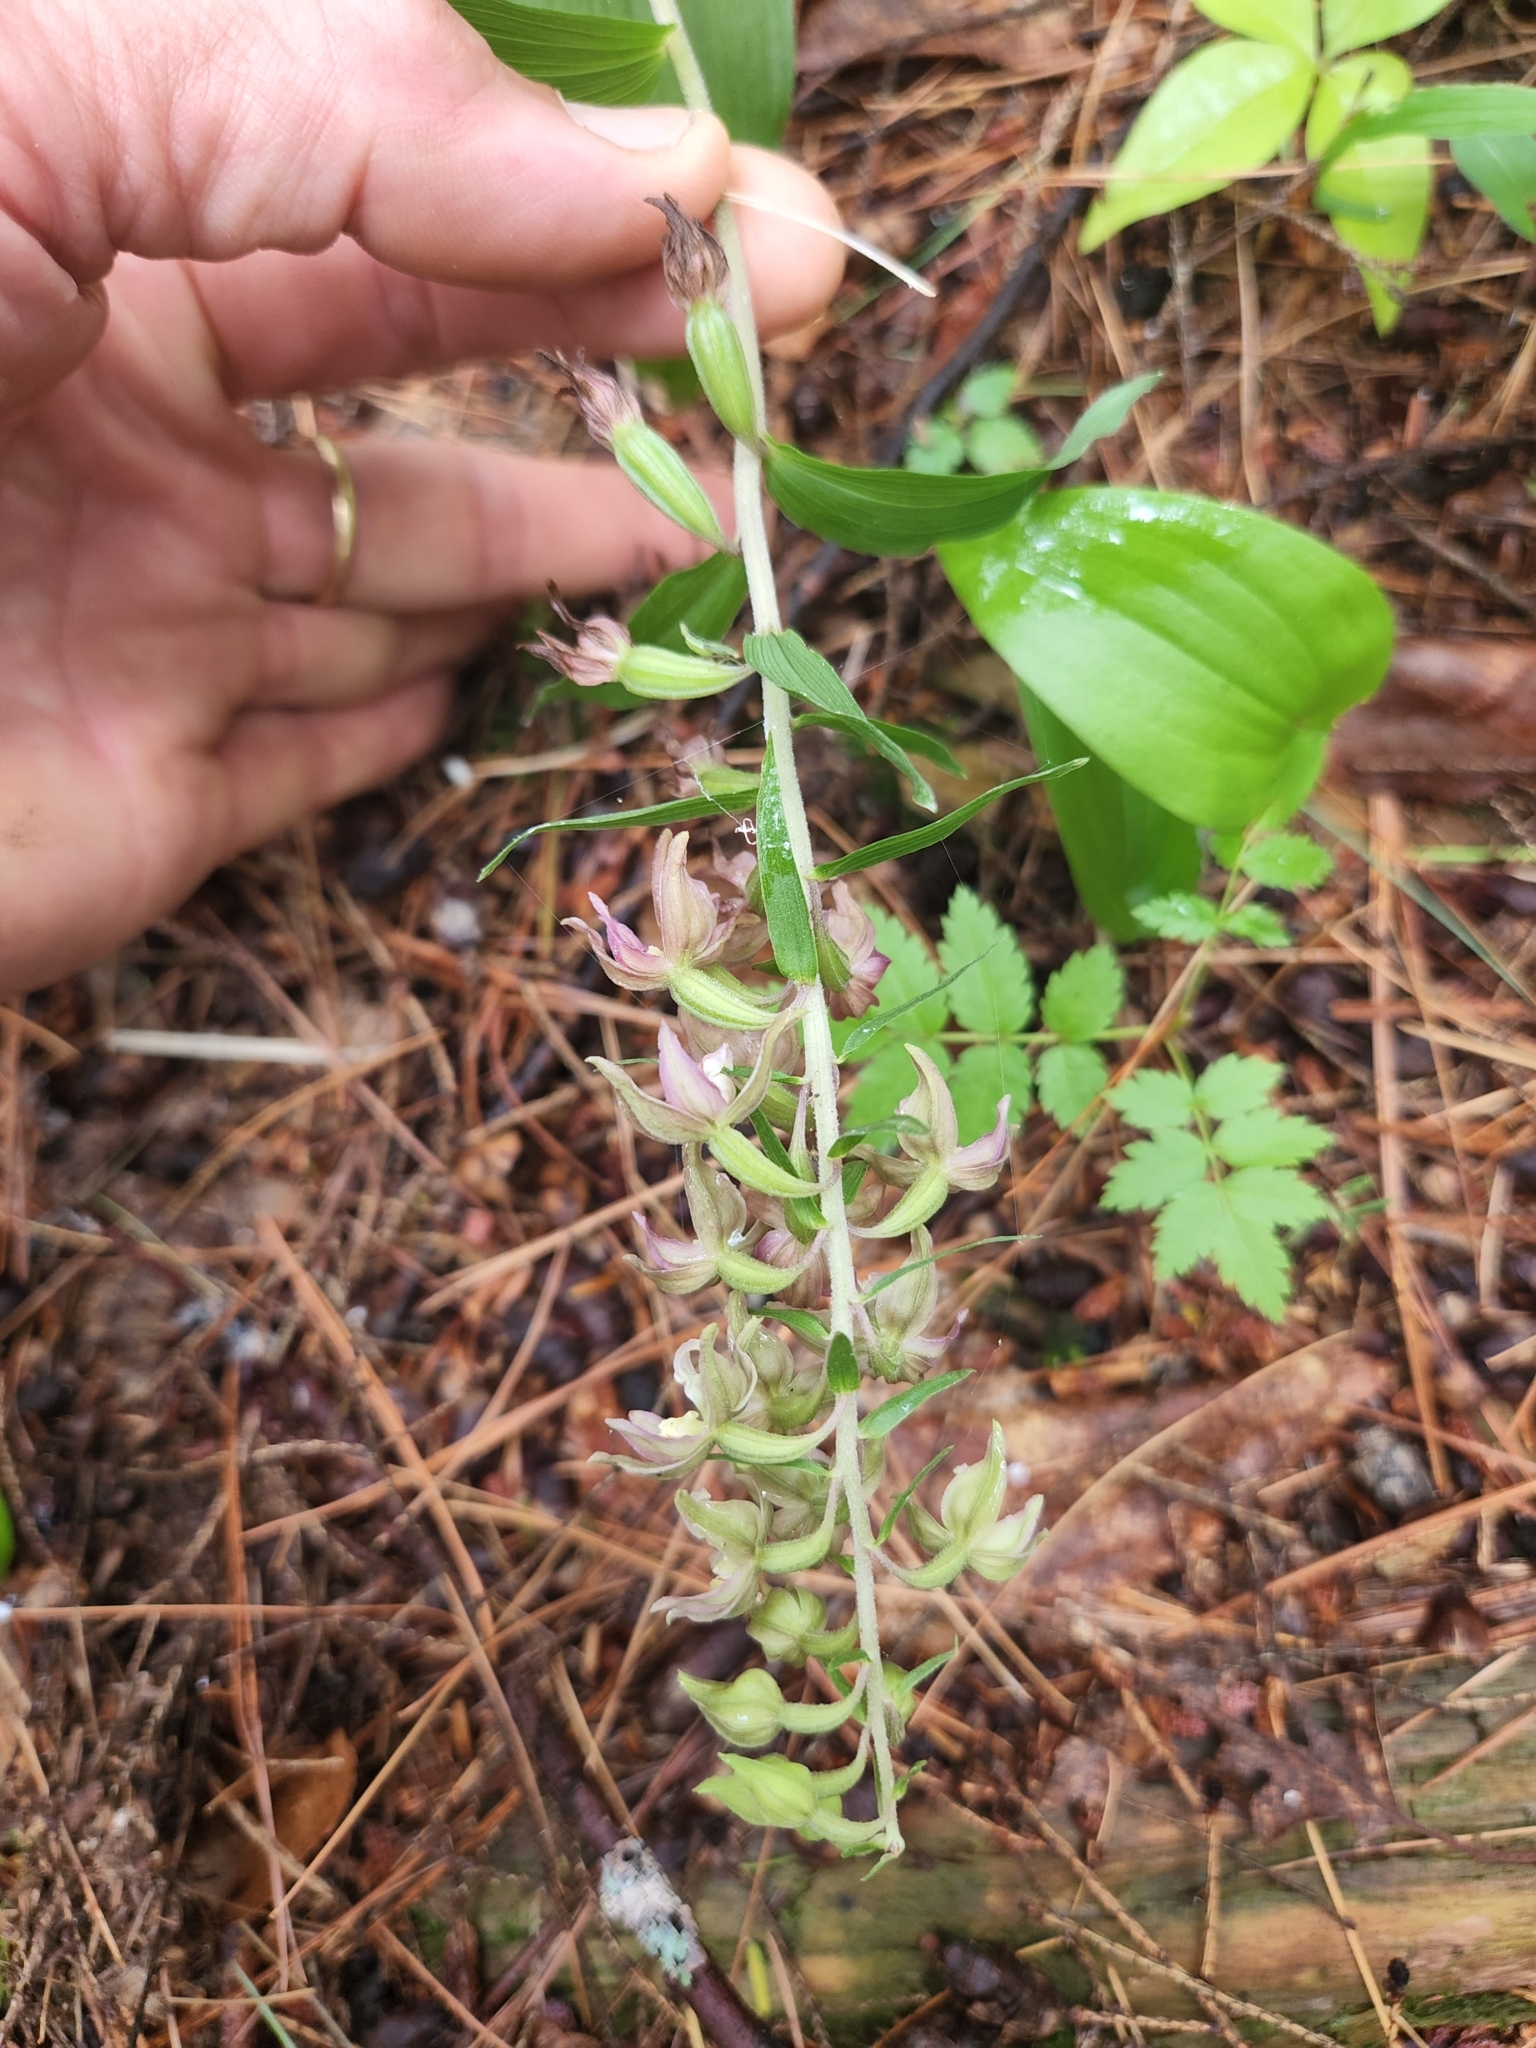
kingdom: Plantae
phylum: Tracheophyta
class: Liliopsida
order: Asparagales
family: Orchidaceae
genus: Epipactis
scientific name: Epipactis helleborine
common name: Broad-leaved helleborine
